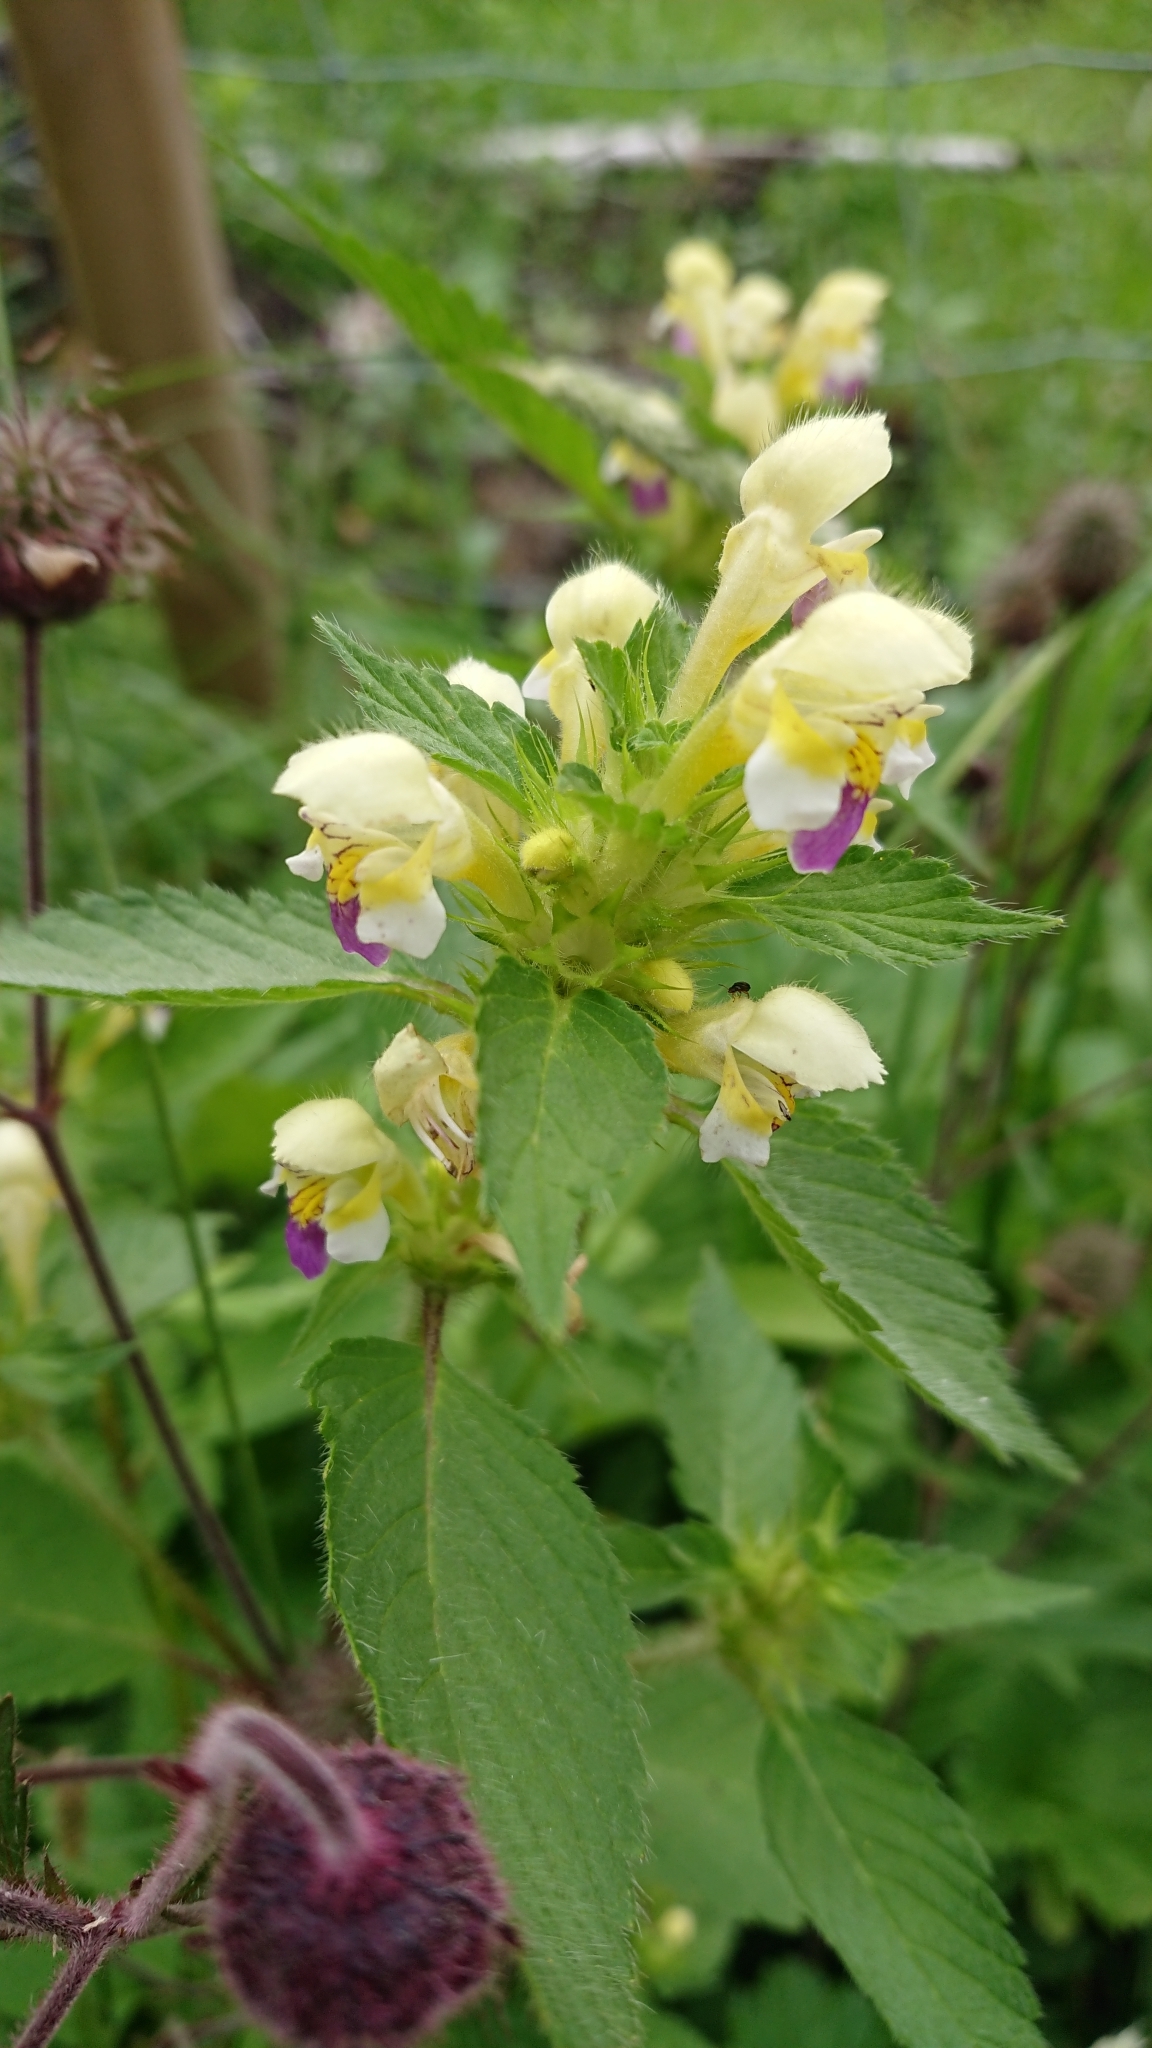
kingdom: Plantae
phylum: Tracheophyta
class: Magnoliopsida
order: Lamiales
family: Lamiaceae
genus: Galeopsis
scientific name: Galeopsis speciosa
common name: Large-flowered hemp-nettle
